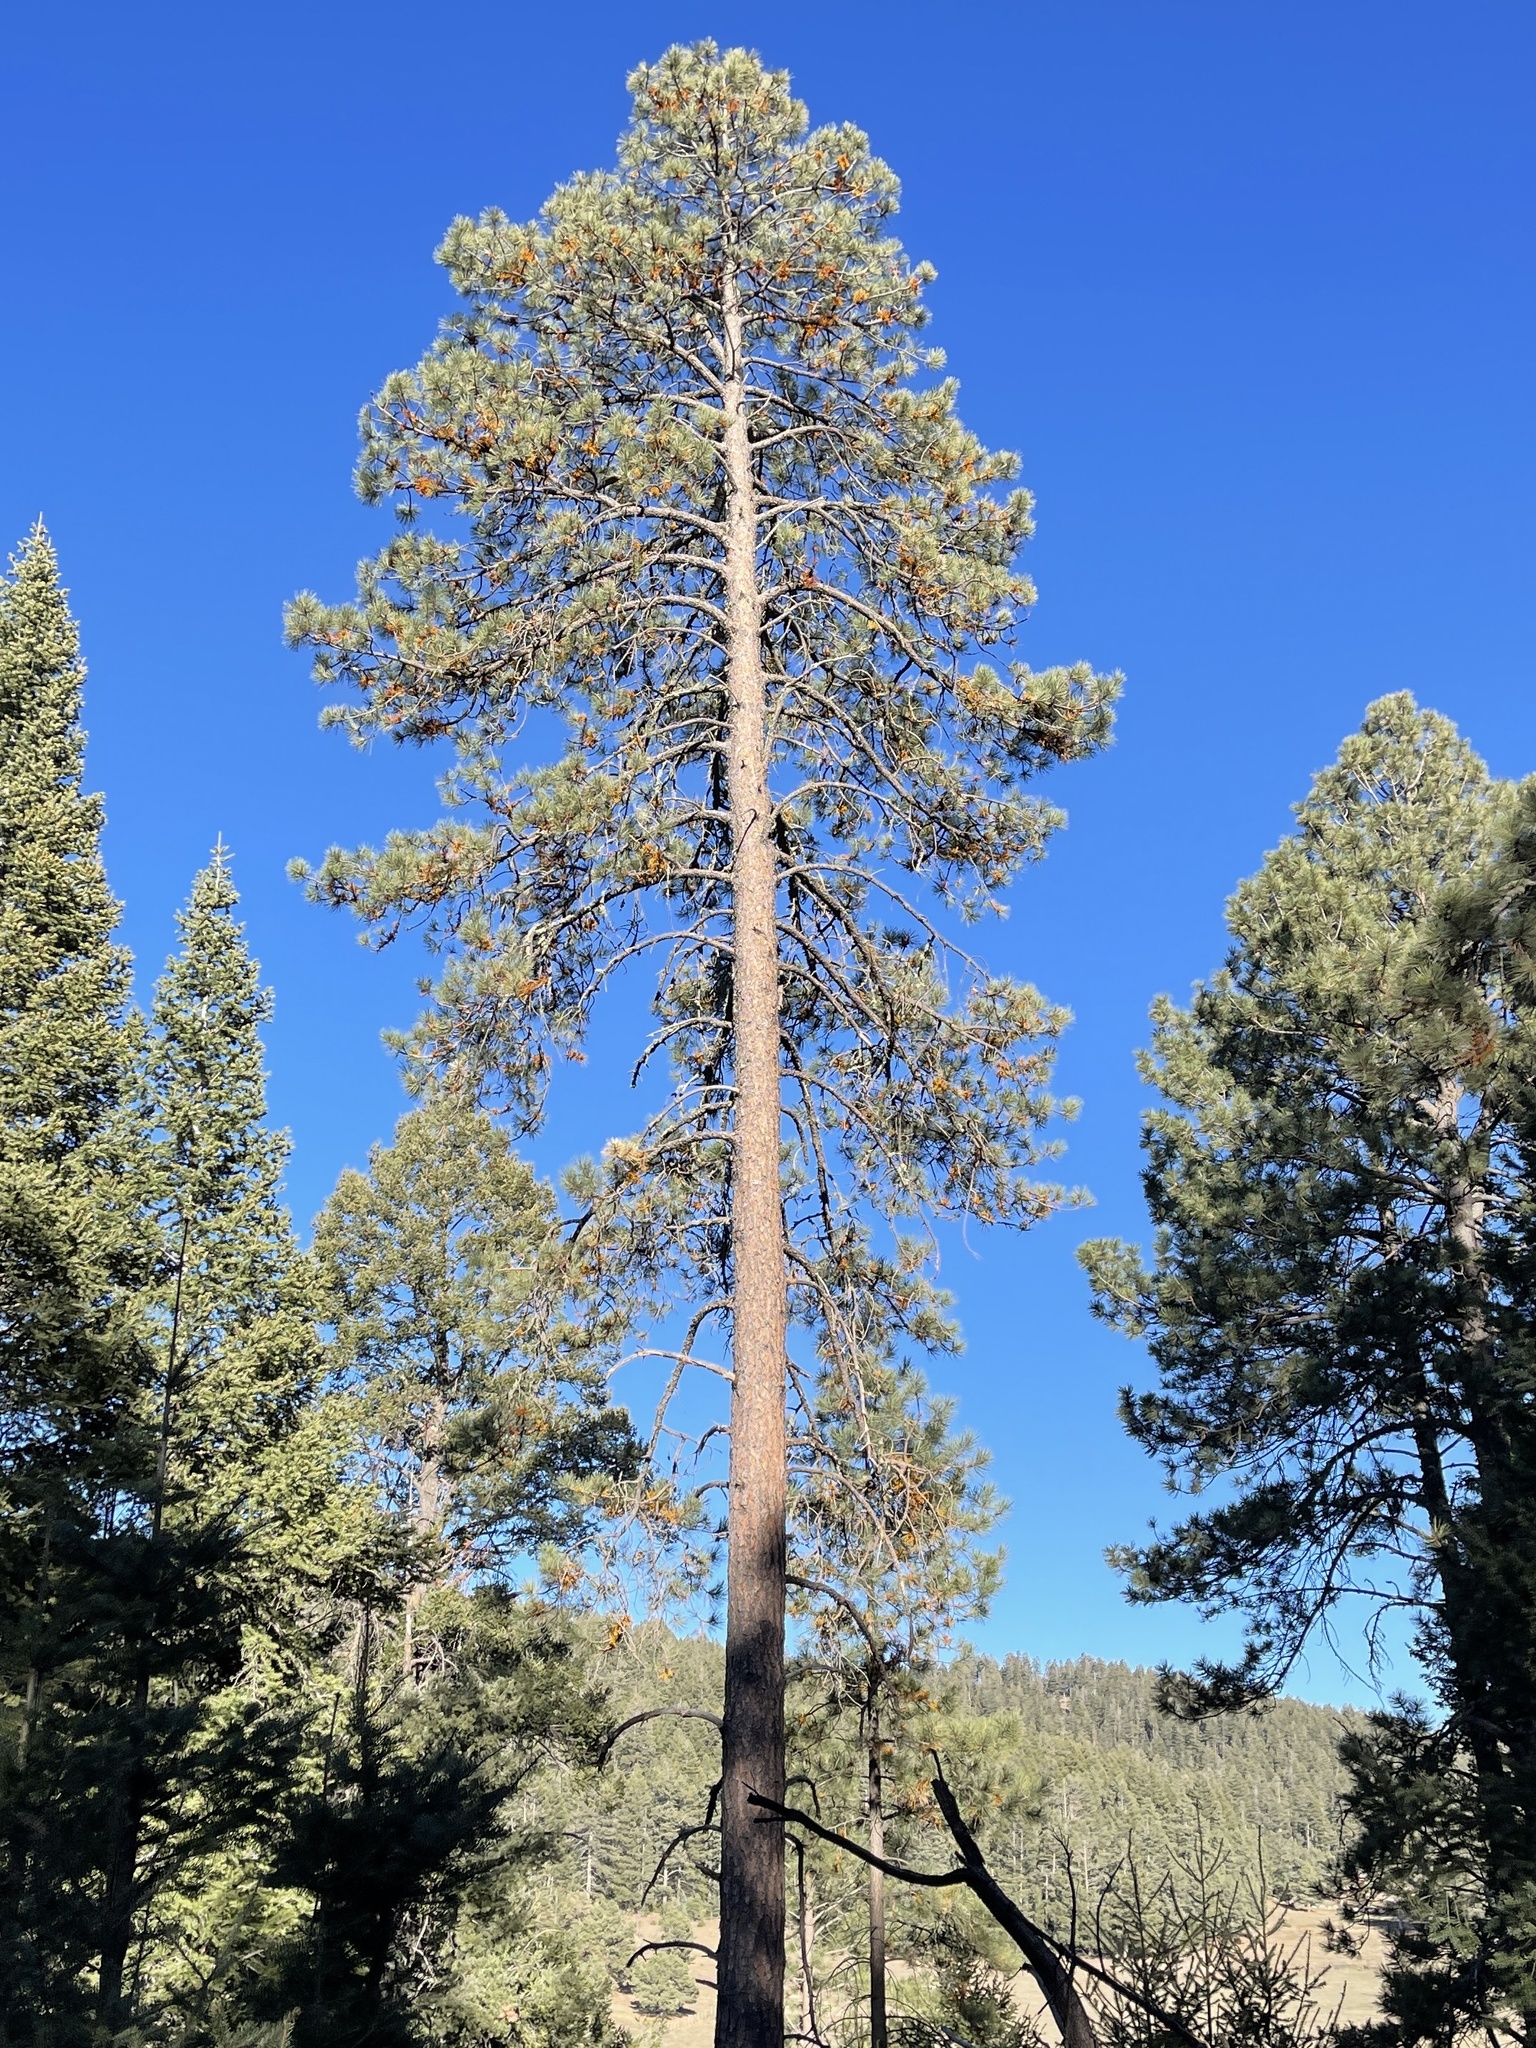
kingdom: Plantae
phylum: Tracheophyta
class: Pinopsida
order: Pinales
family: Pinaceae
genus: Pinus
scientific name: Pinus ponderosa
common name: Western yellow-pine
